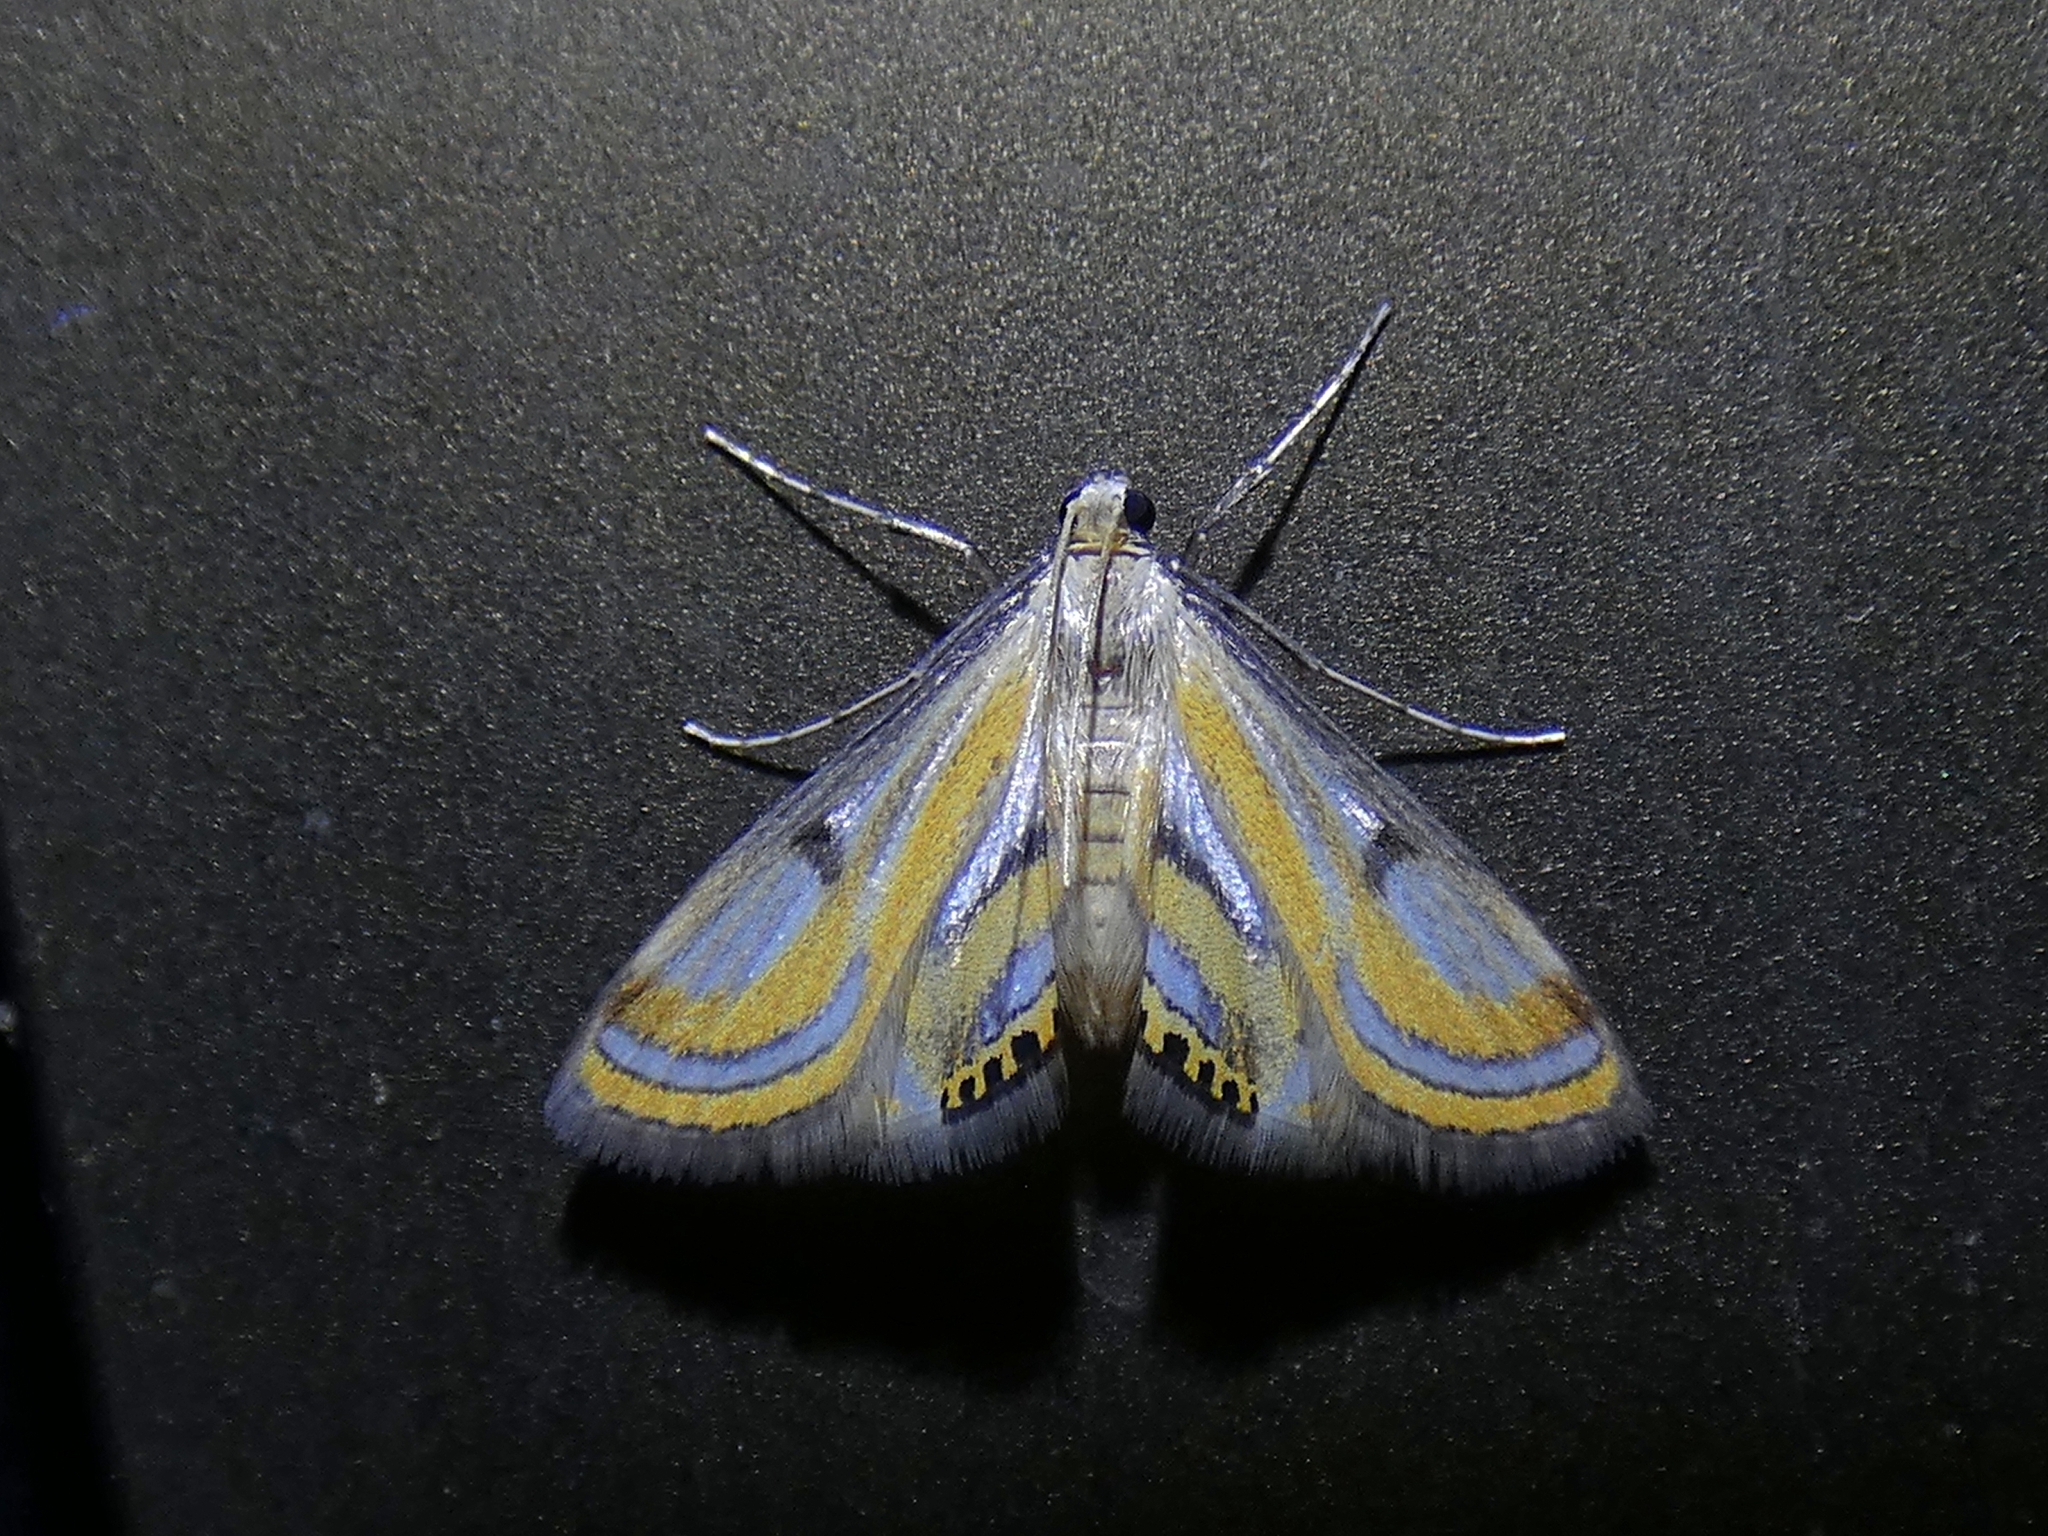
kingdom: Animalia
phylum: Arthropoda
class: Insecta
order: Lepidoptera
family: Crambidae
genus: Tetrernia
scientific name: Tetrernia teminitis
